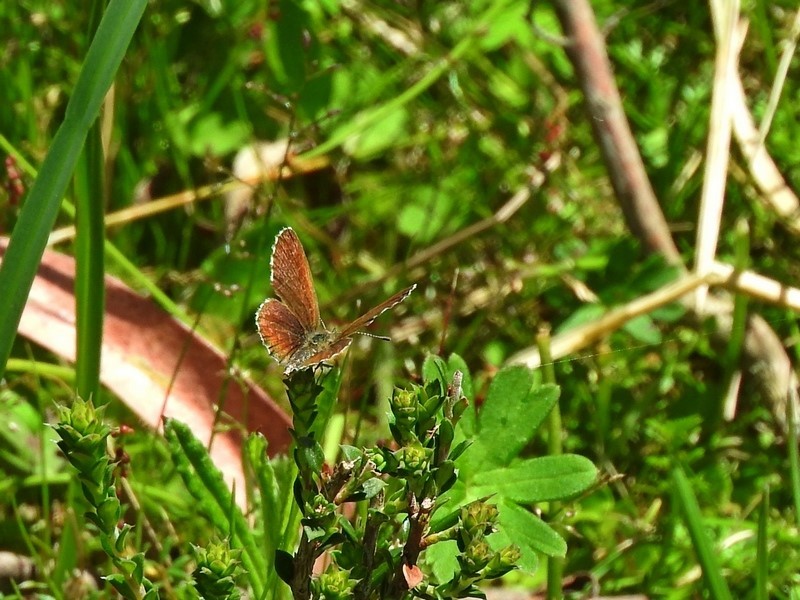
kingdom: Animalia
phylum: Arthropoda
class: Insecta
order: Lepidoptera
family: Lycaenidae
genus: Neolucia
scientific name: Neolucia hobartensis
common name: Mountain blue
